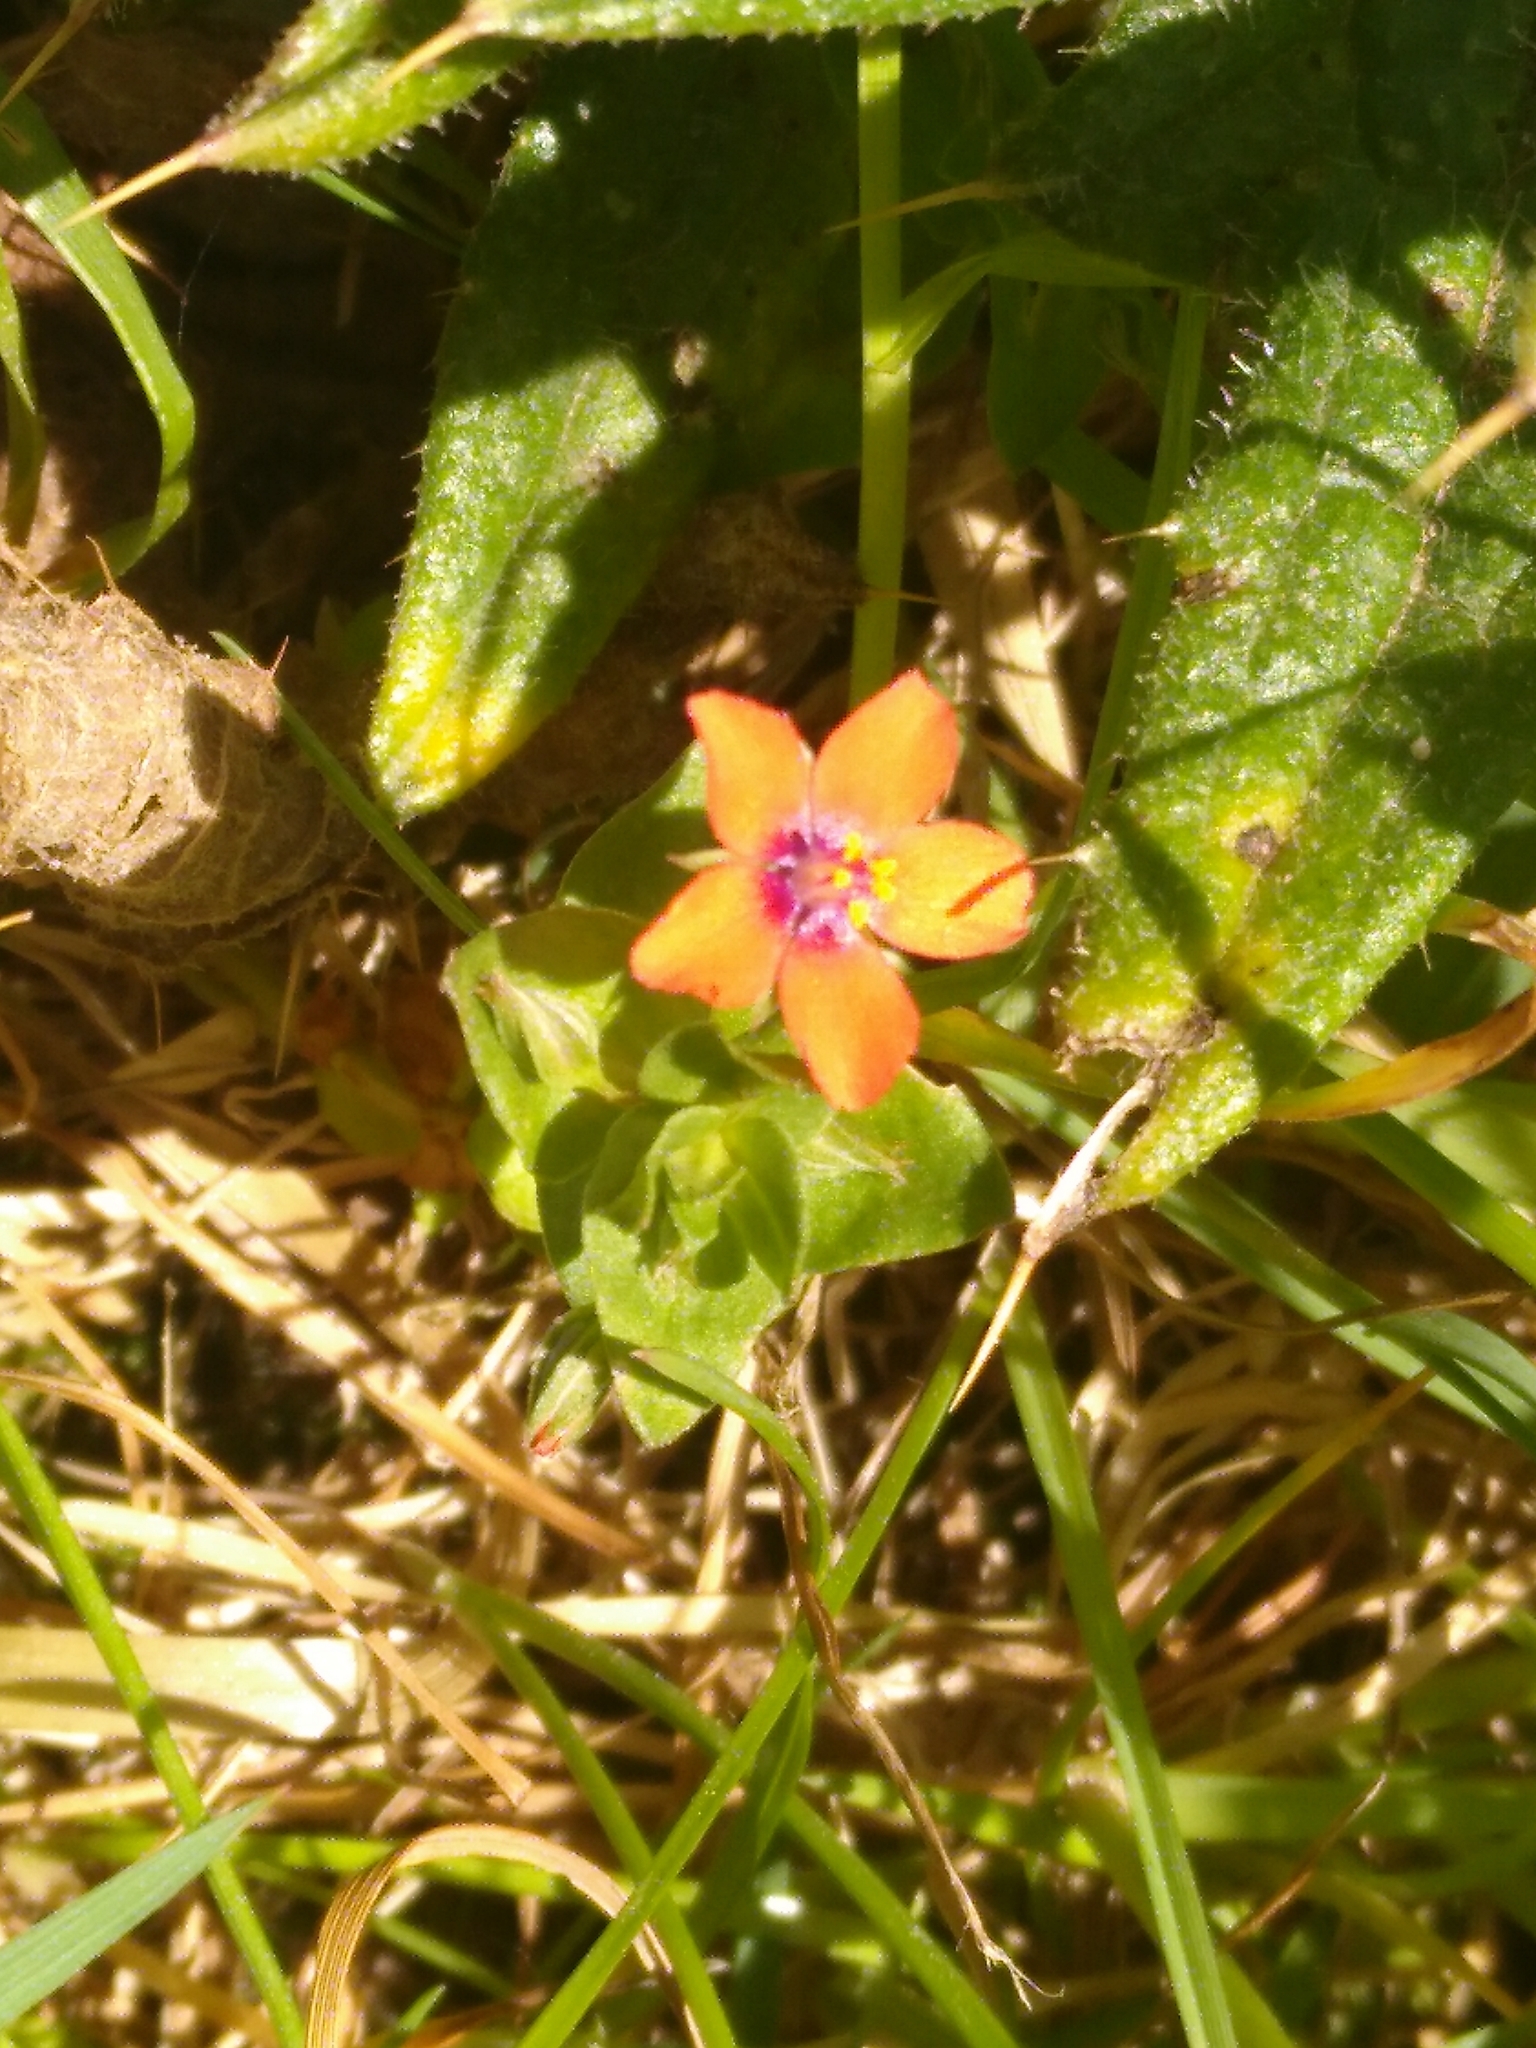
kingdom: Plantae
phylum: Tracheophyta
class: Magnoliopsida
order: Ericales
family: Primulaceae
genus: Lysimachia
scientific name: Lysimachia arvensis
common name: Scarlet pimpernel
